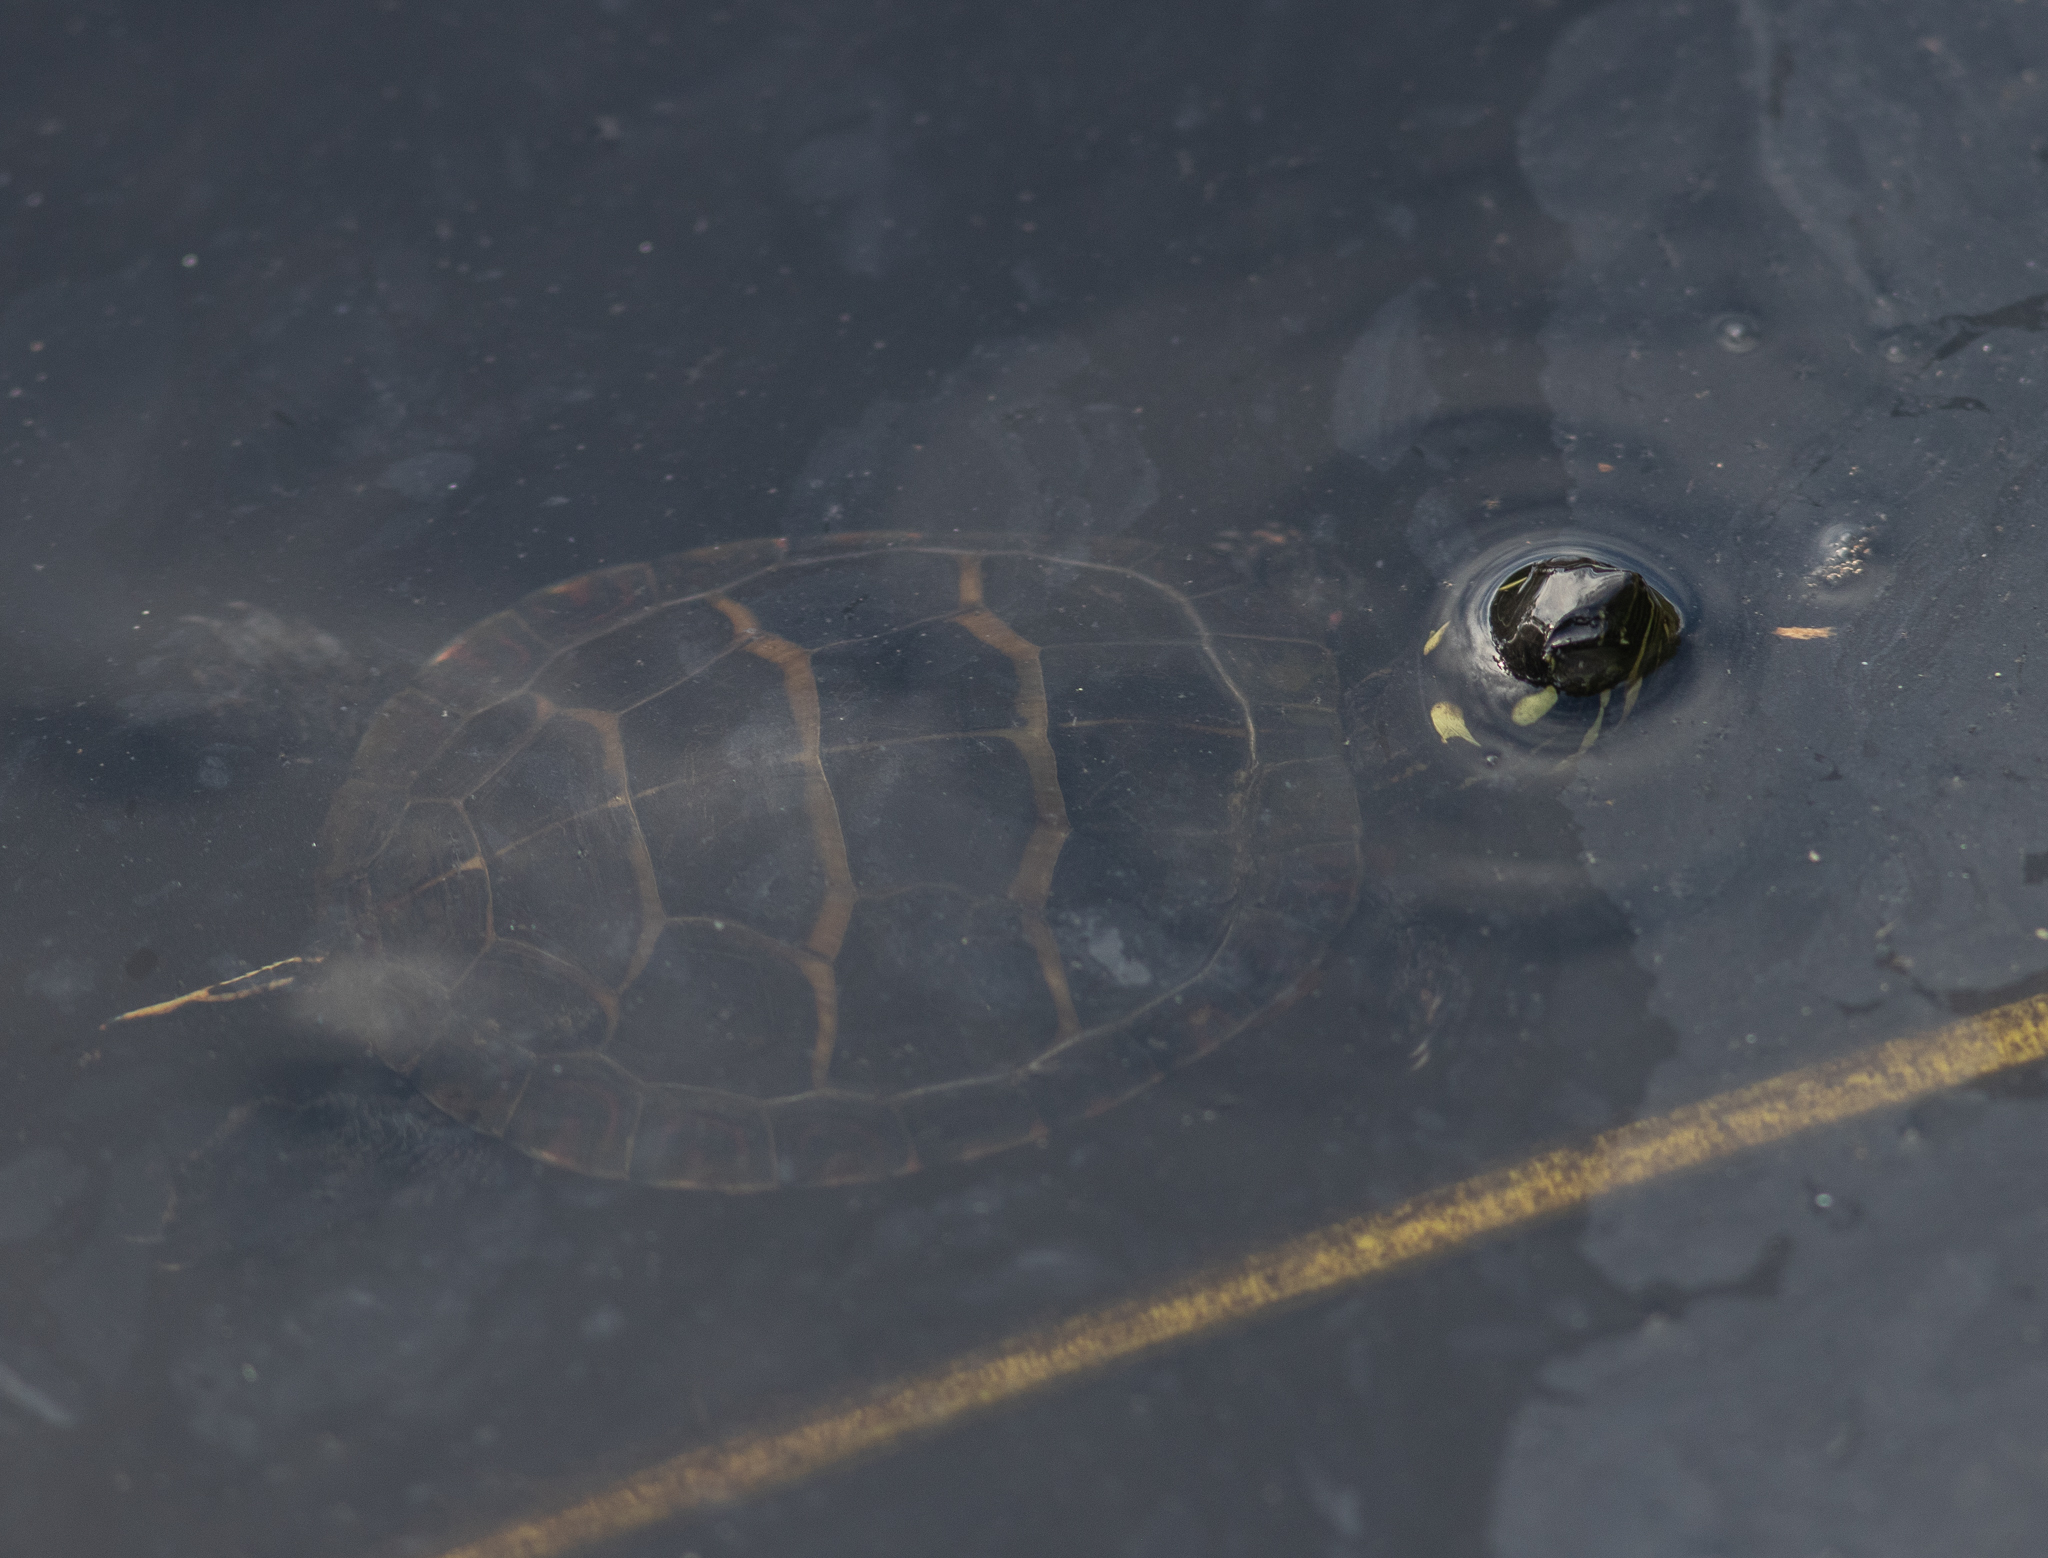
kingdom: Animalia
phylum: Chordata
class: Testudines
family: Emydidae
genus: Chrysemys
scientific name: Chrysemys picta
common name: Painted turtle
